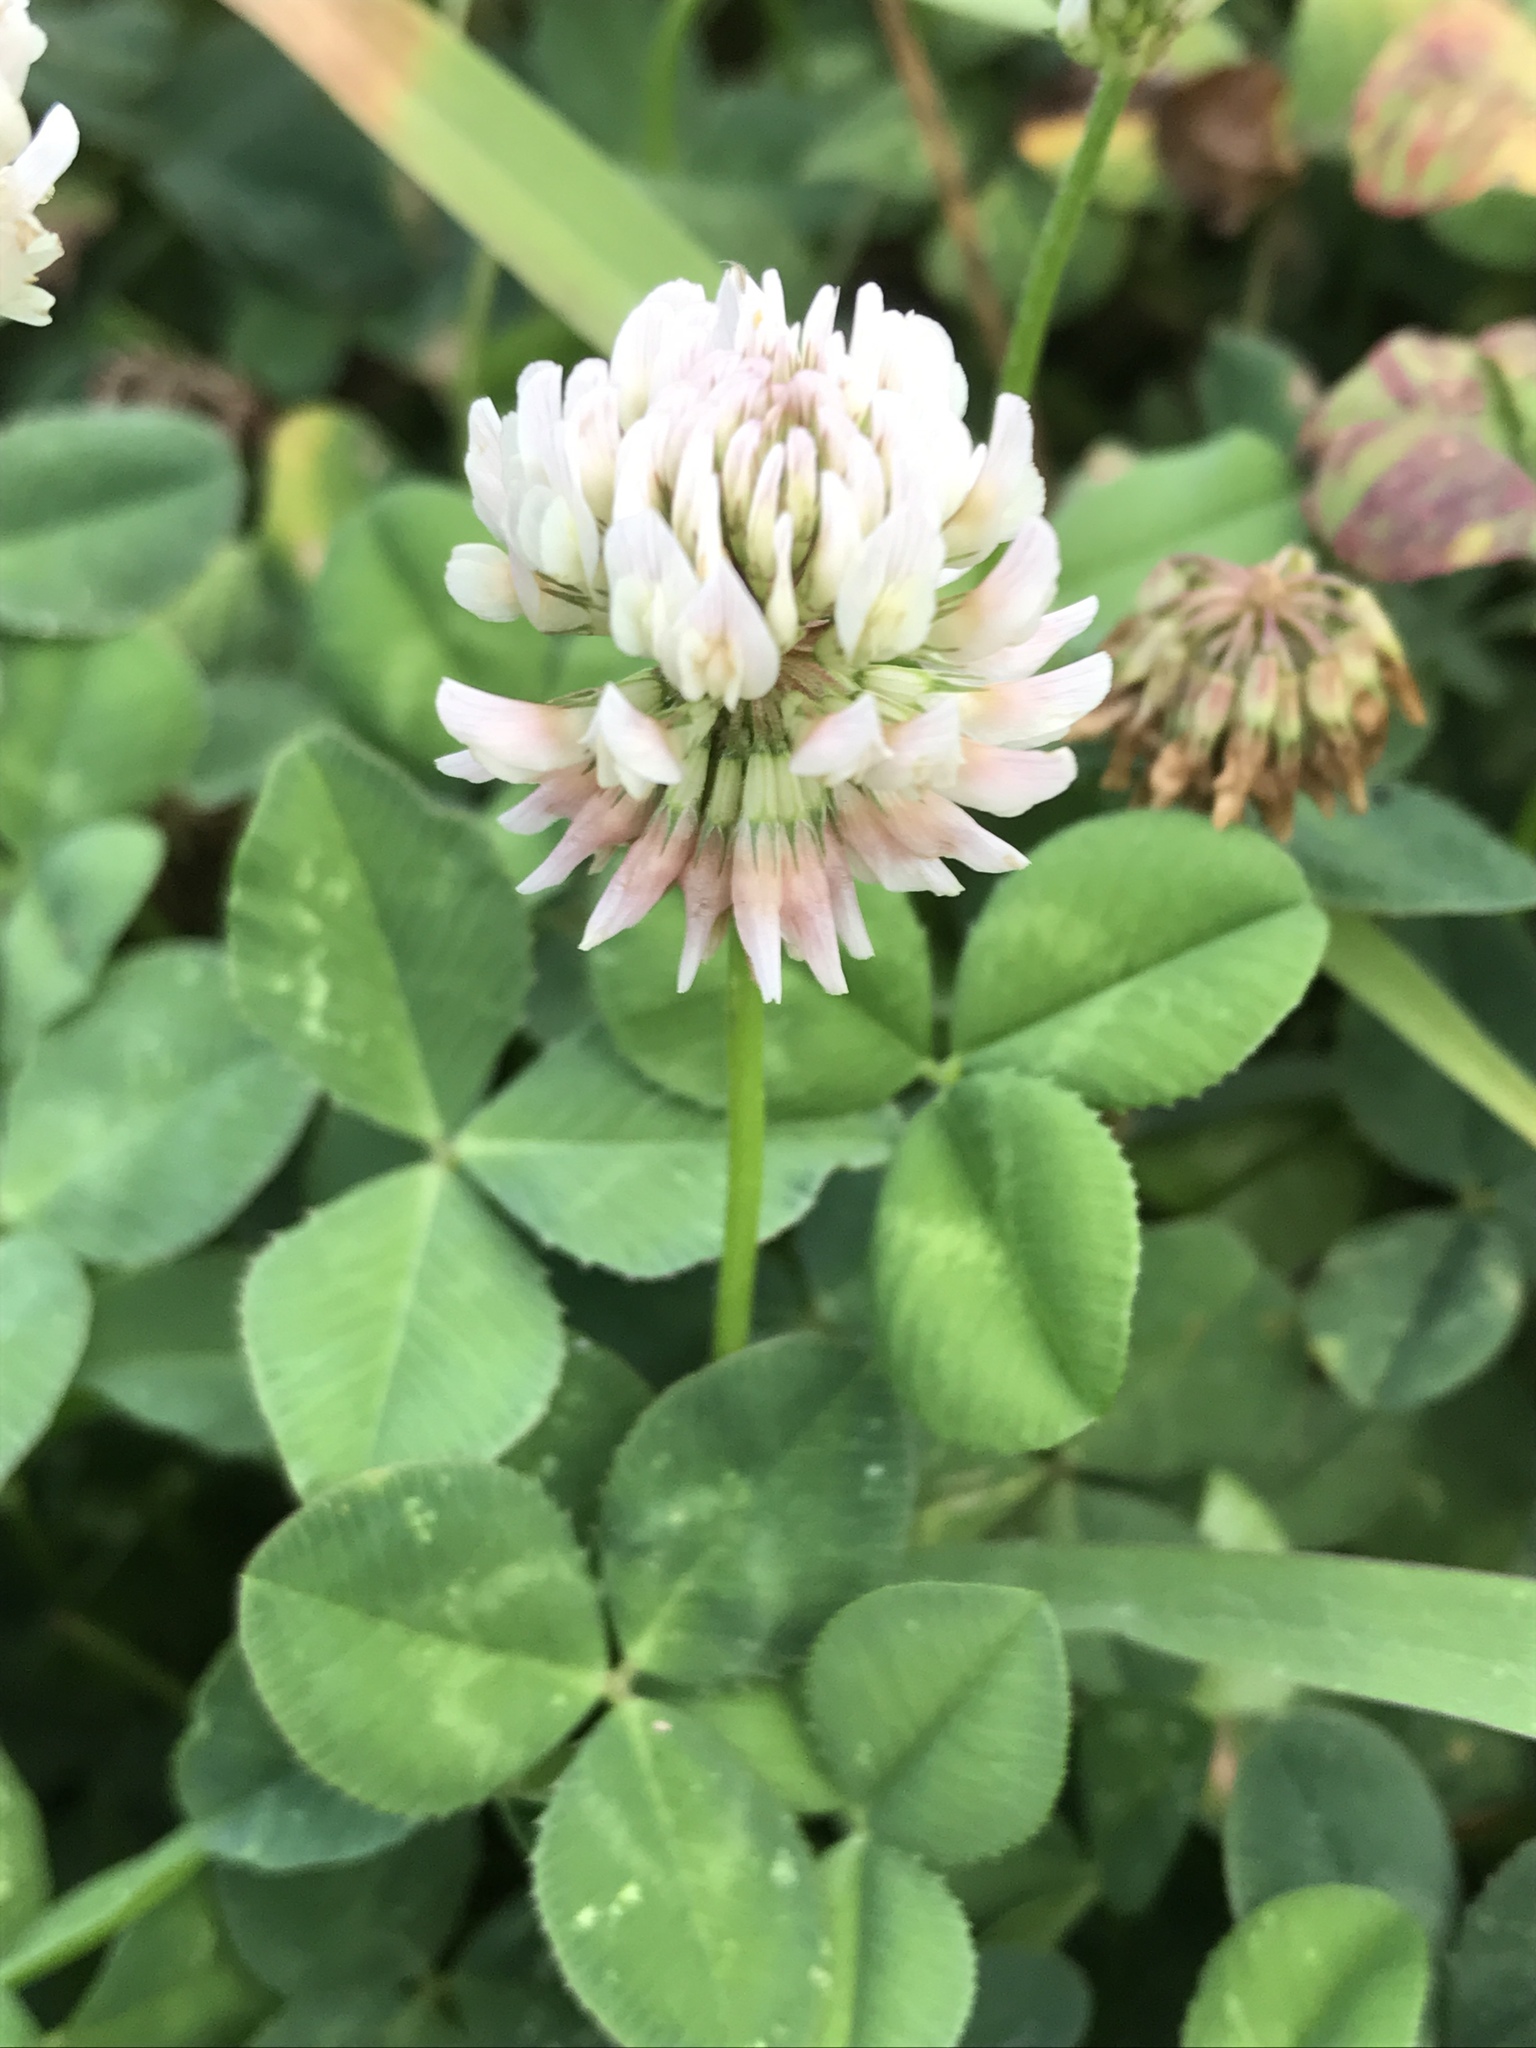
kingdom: Plantae
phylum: Tracheophyta
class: Magnoliopsida
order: Fabales
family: Fabaceae
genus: Trifolium
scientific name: Trifolium repens
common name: White clover
